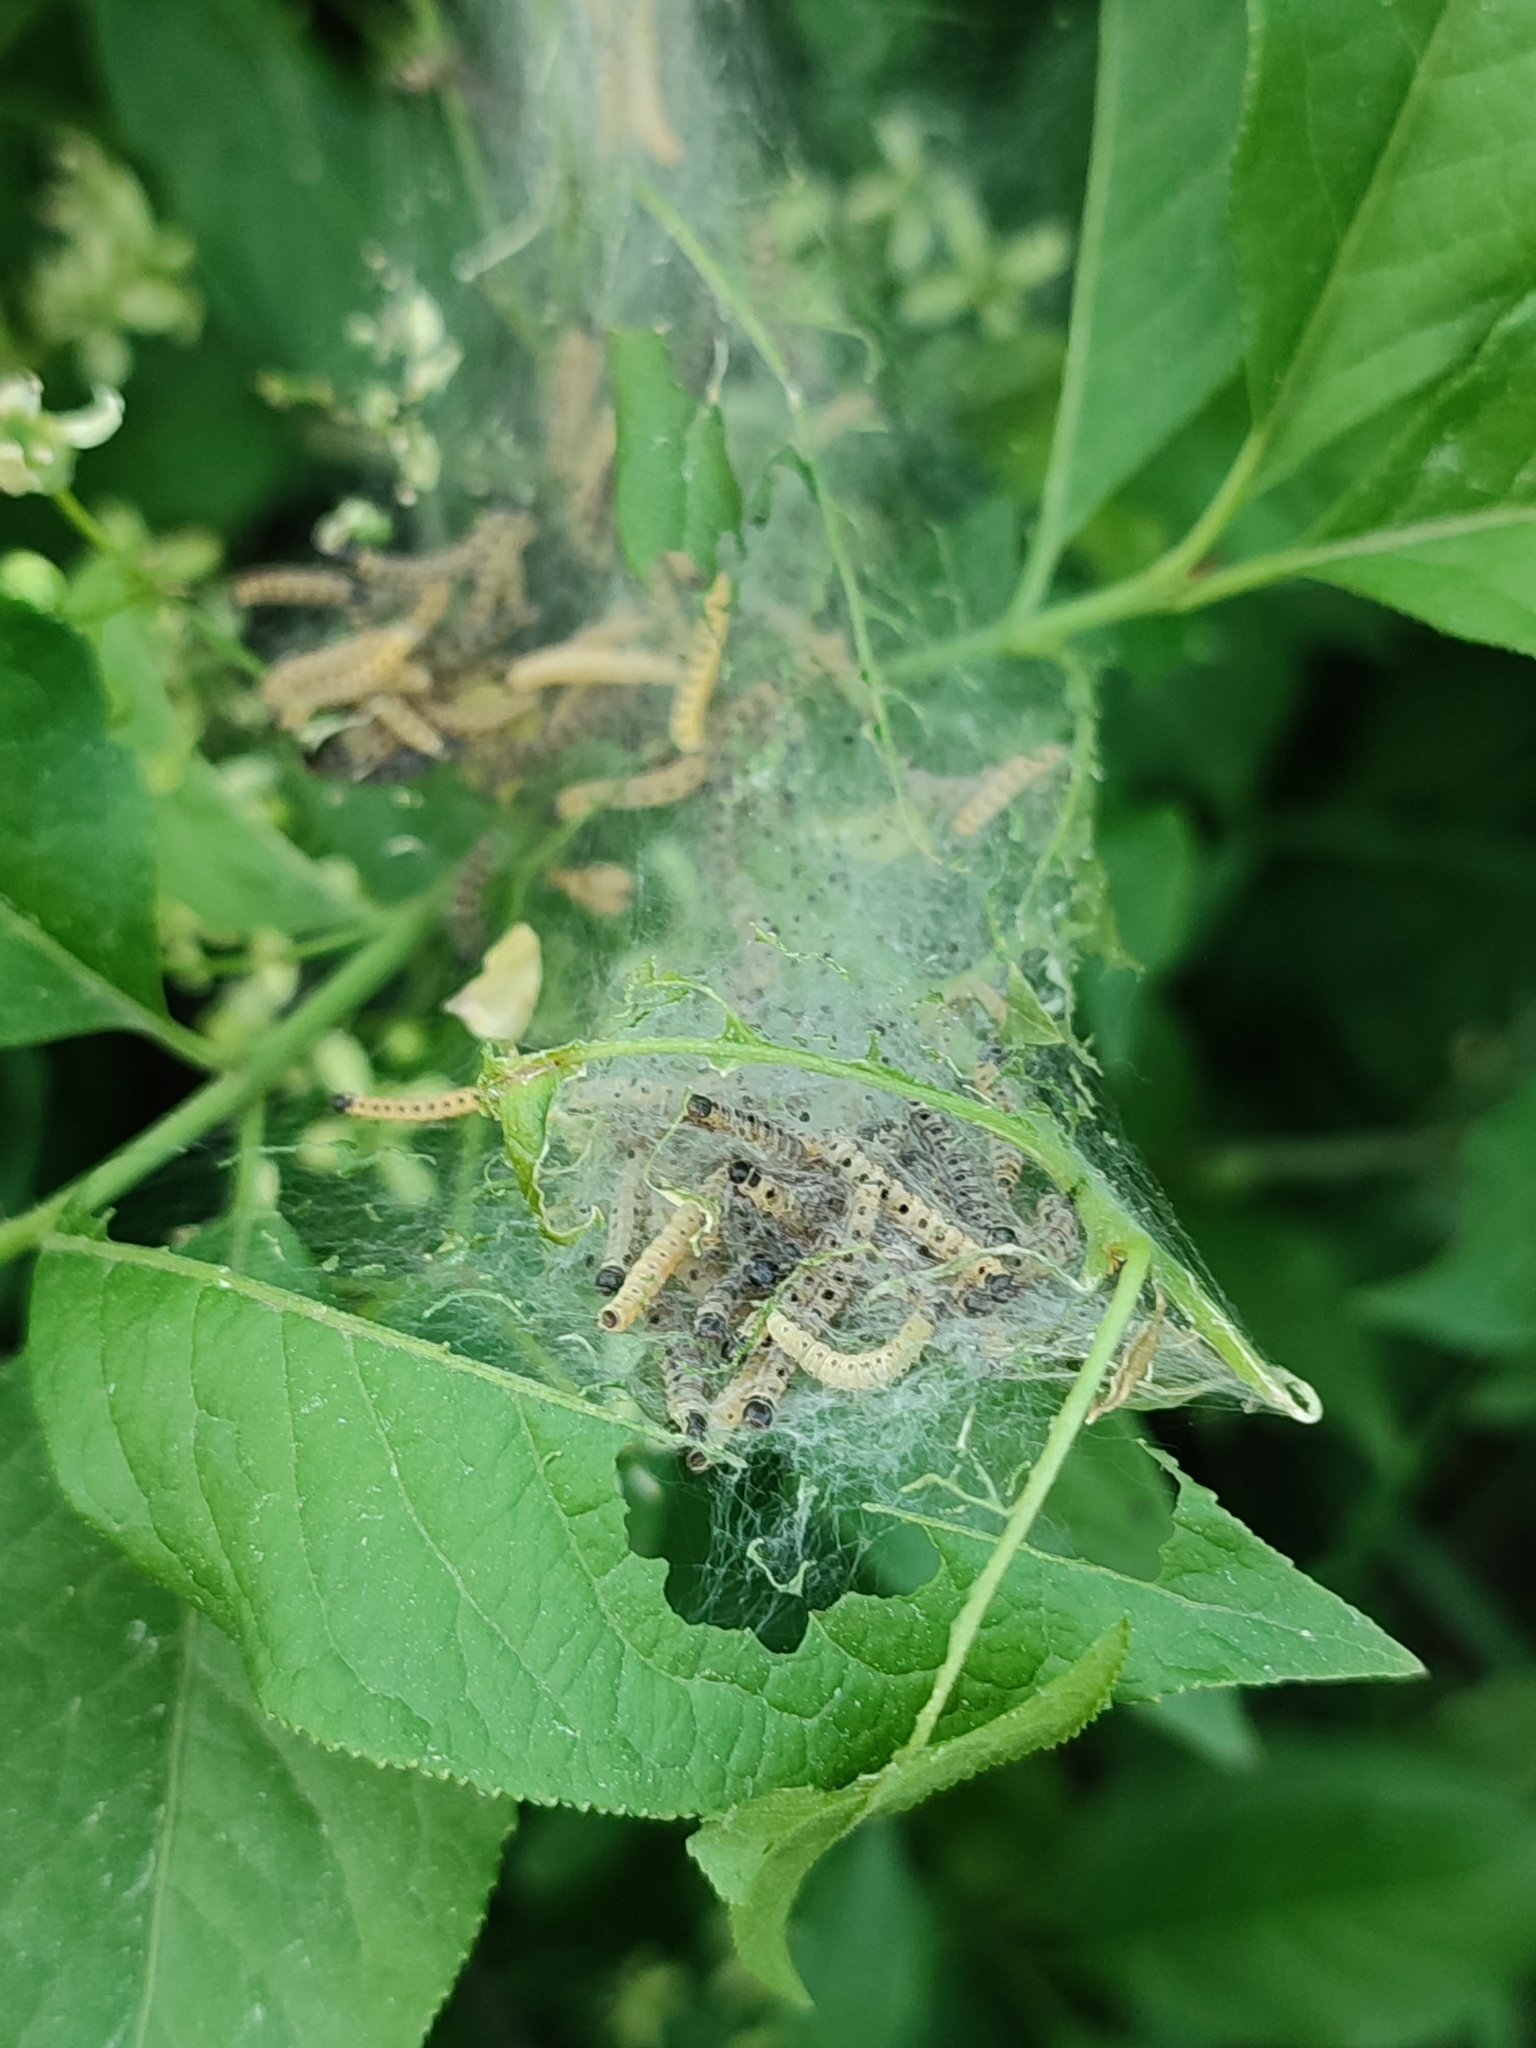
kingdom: Animalia
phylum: Arthropoda
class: Insecta
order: Lepidoptera
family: Yponomeutidae
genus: Yponomeuta
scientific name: Yponomeuta cagnagellus
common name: Spindle ermine
